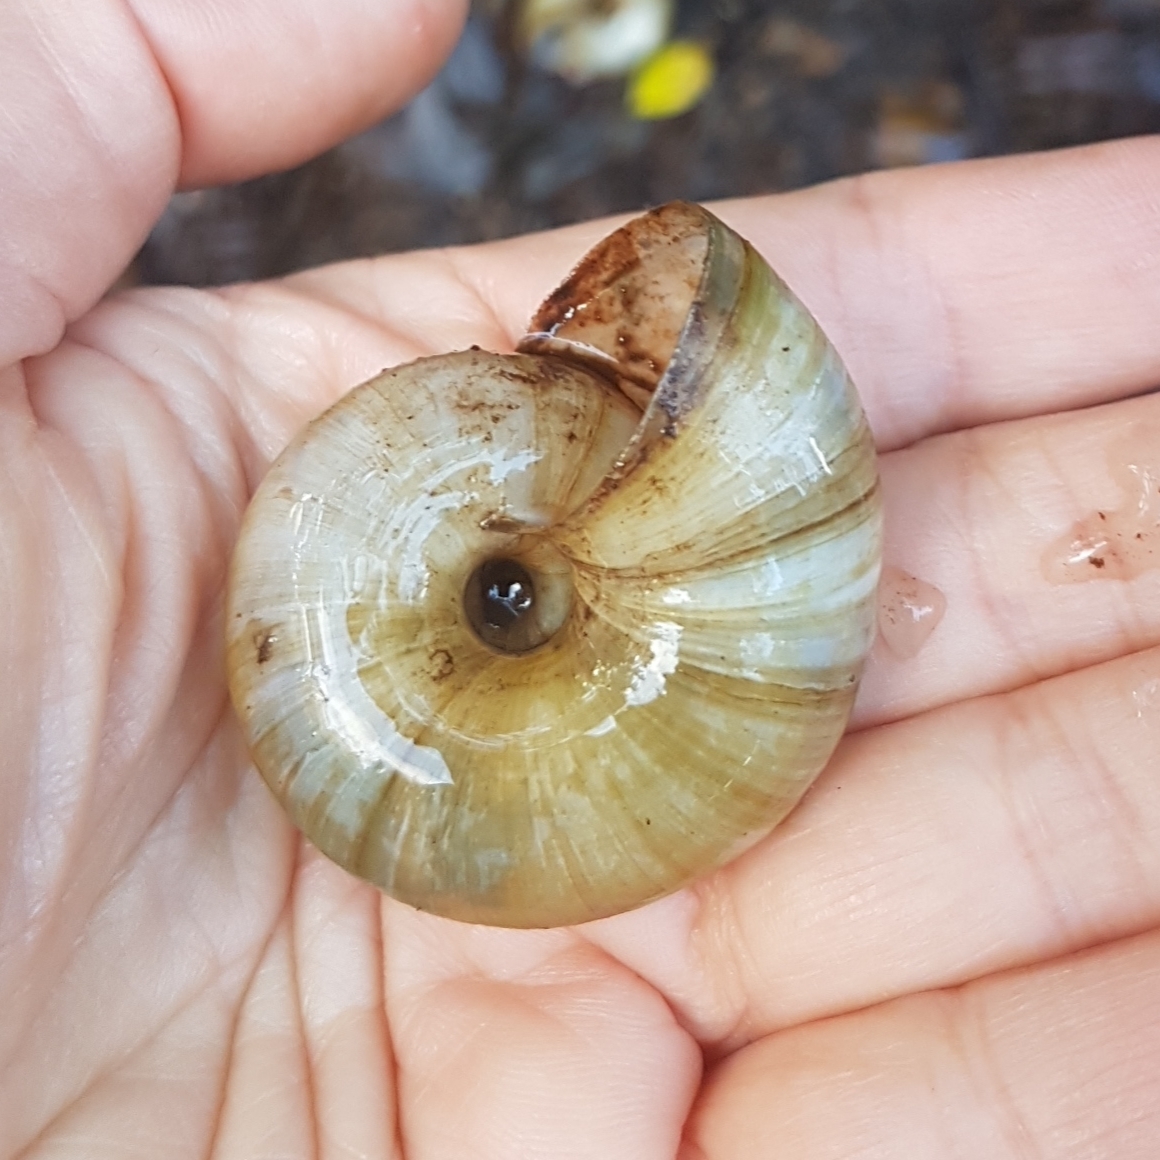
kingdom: Animalia
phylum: Mollusca
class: Gastropoda
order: Stylommatophora
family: Zonitidae
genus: Zonites
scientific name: Zonites algirus
